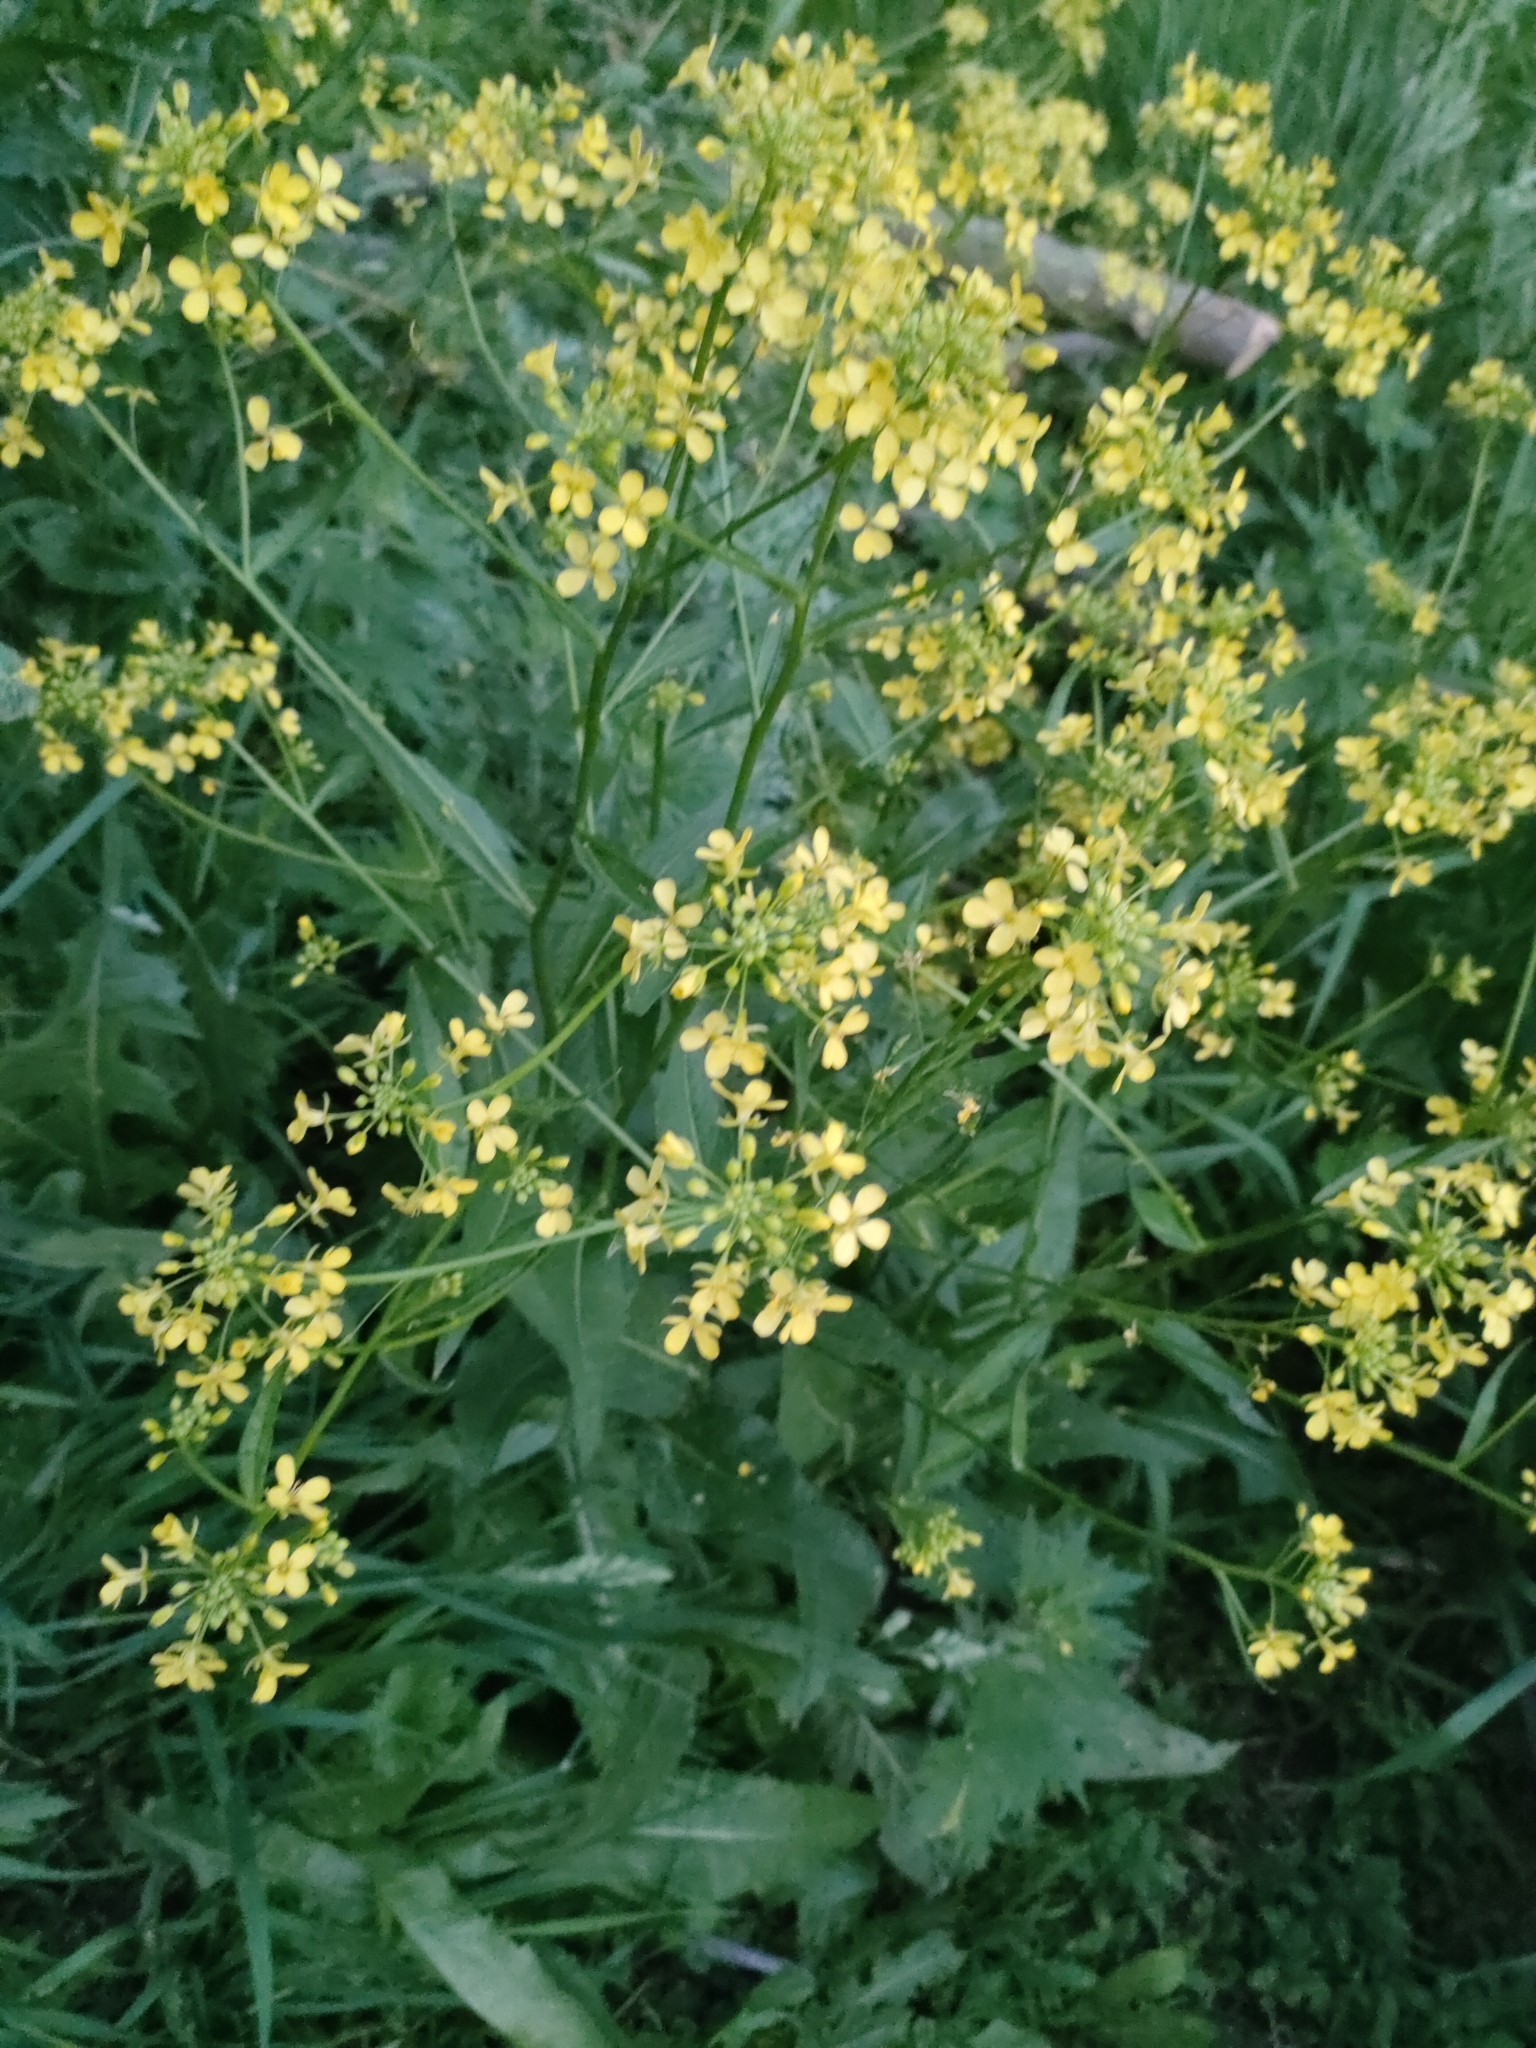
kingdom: Plantae
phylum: Tracheophyta
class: Magnoliopsida
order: Brassicales
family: Brassicaceae
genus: Bunias
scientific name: Bunias orientalis
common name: Warty-cabbage
